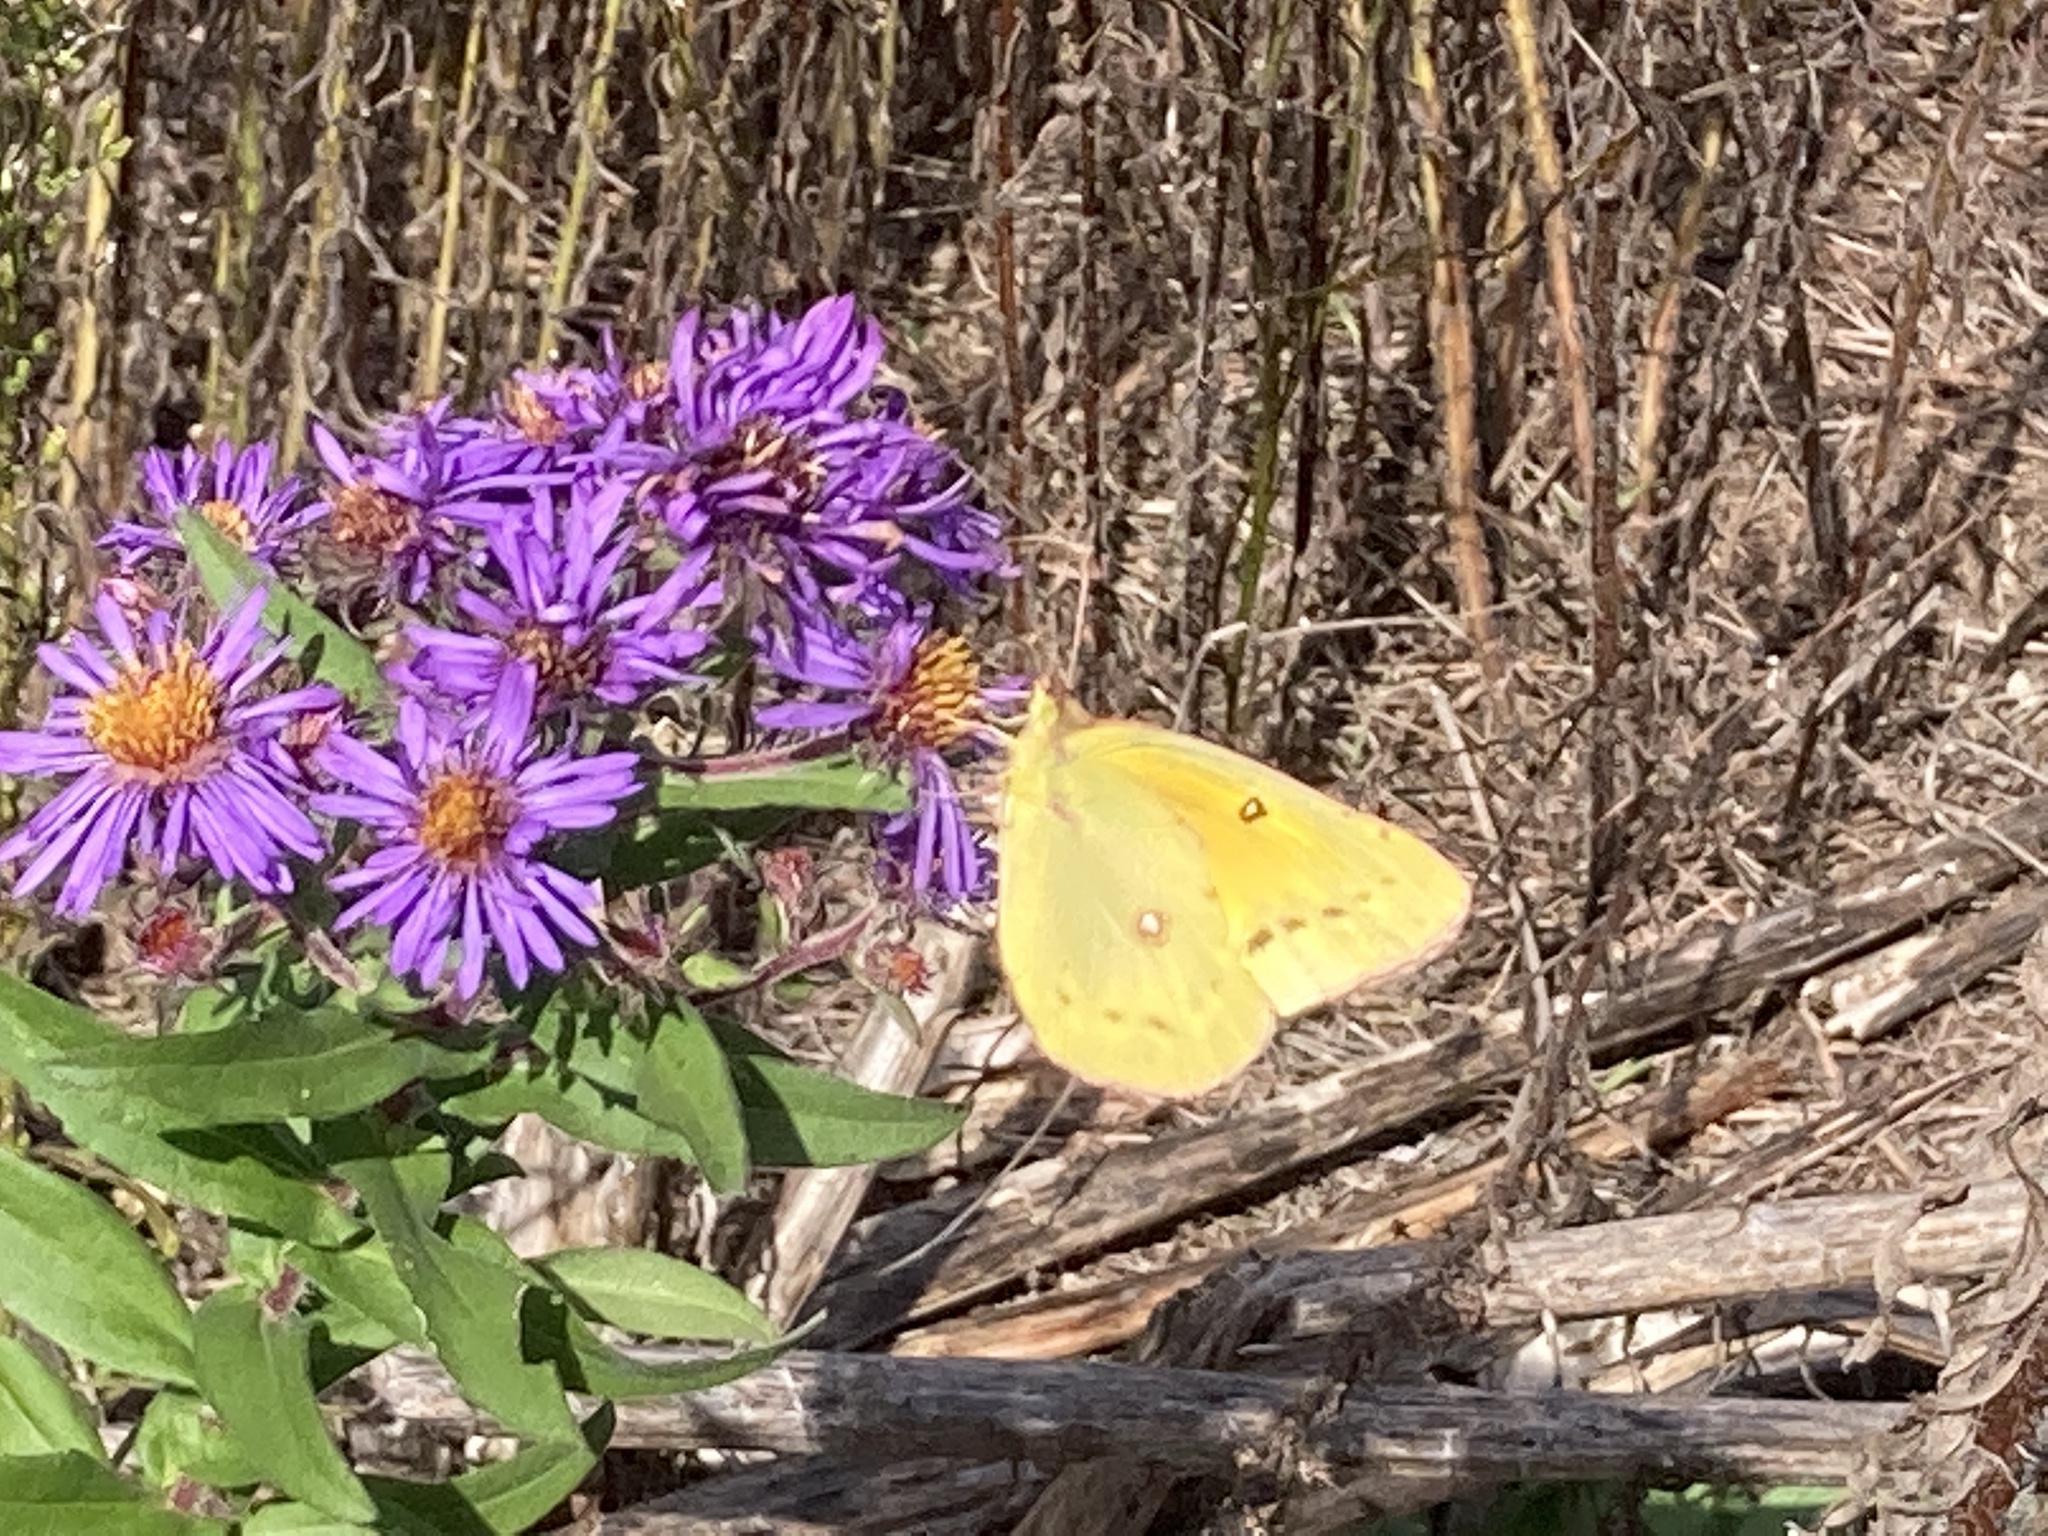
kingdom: Animalia
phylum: Arthropoda
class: Insecta
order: Lepidoptera
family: Pieridae
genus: Colias
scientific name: Colias eurytheme
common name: Alfalfa butterfly
